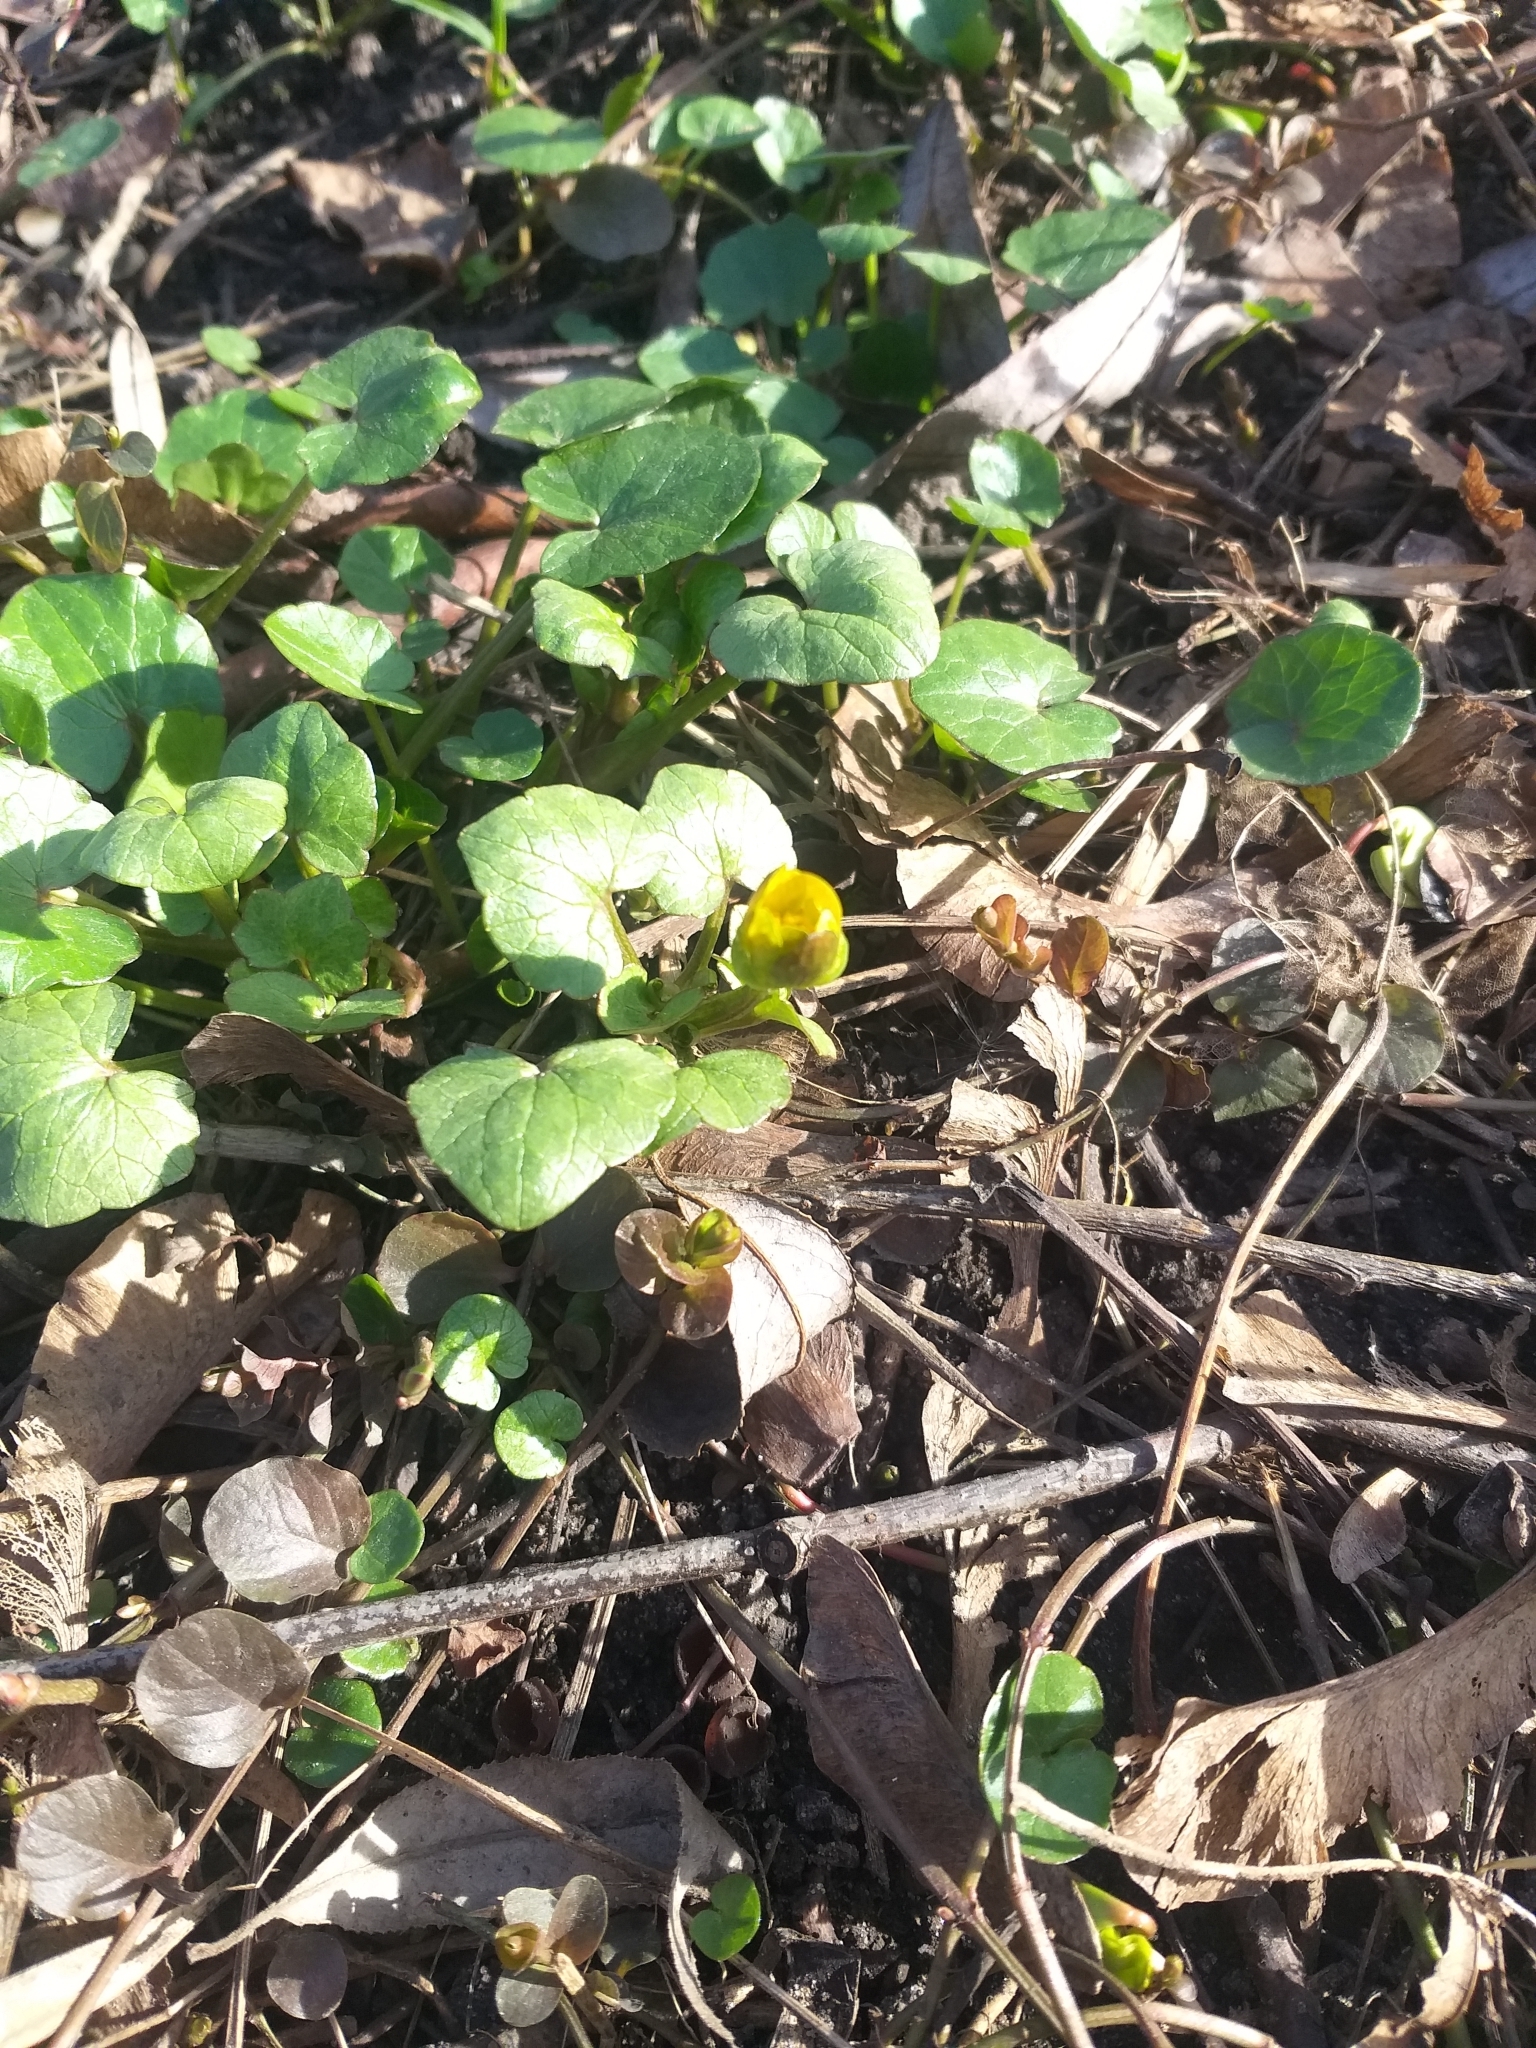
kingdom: Plantae
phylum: Tracheophyta
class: Magnoliopsida
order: Ranunculales
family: Ranunculaceae
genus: Ficaria
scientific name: Ficaria verna
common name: Lesser celandine
